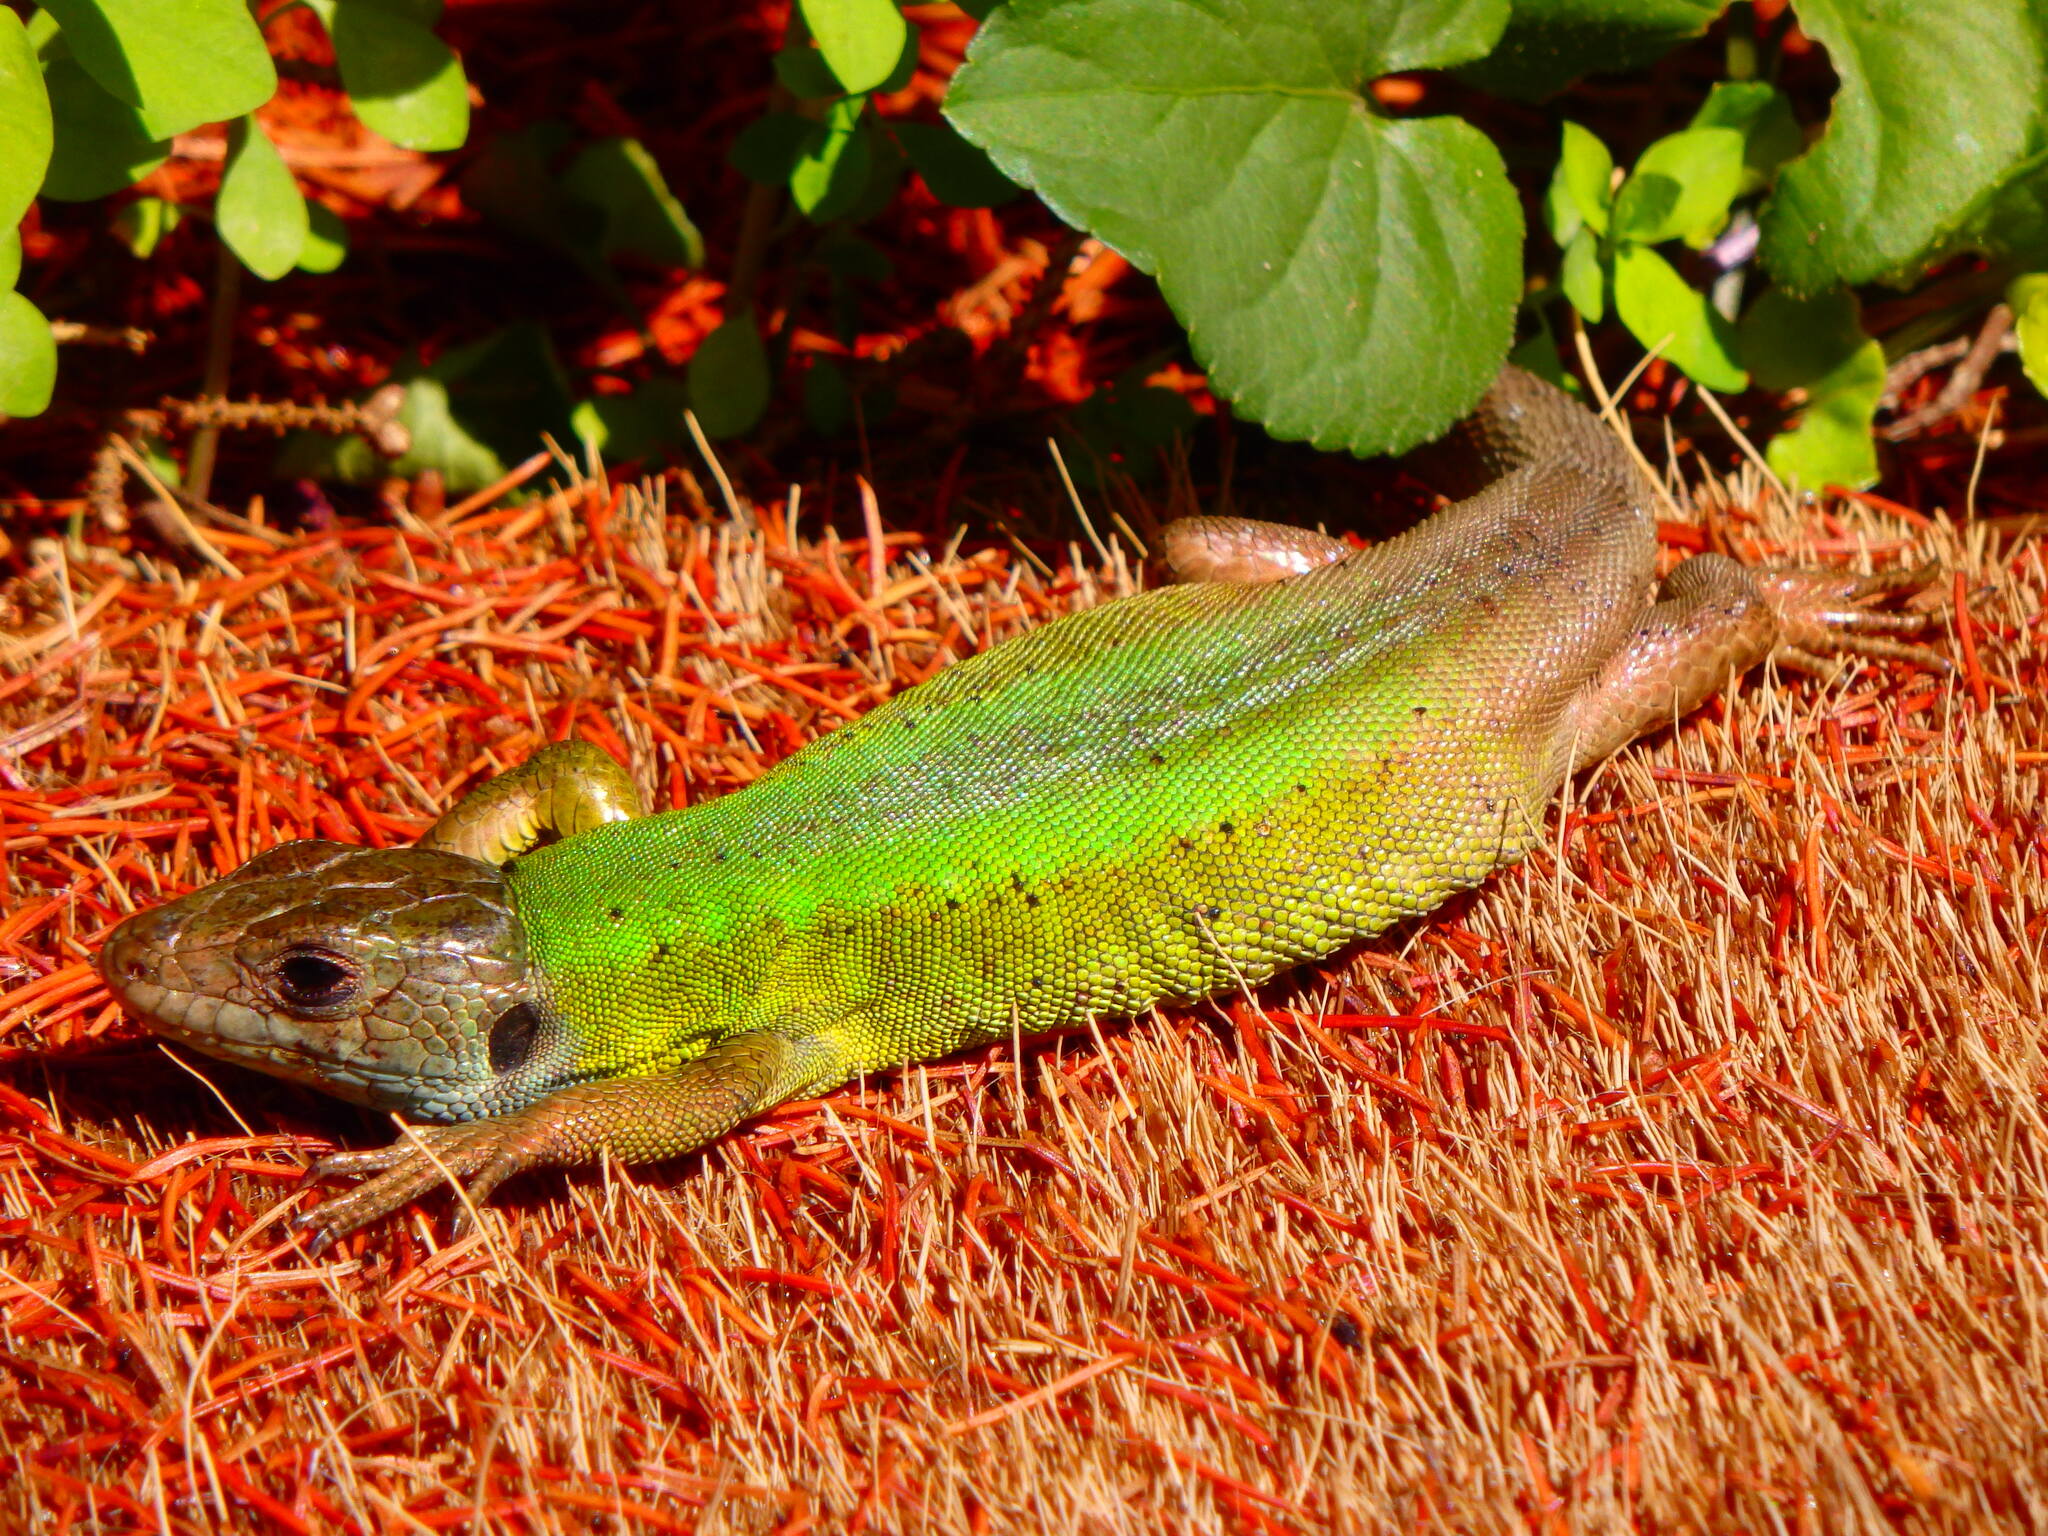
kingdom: Animalia
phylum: Chordata
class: Squamata
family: Lacertidae
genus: Lacerta
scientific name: Lacerta schreiberi
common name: Iberian emerald lizard
